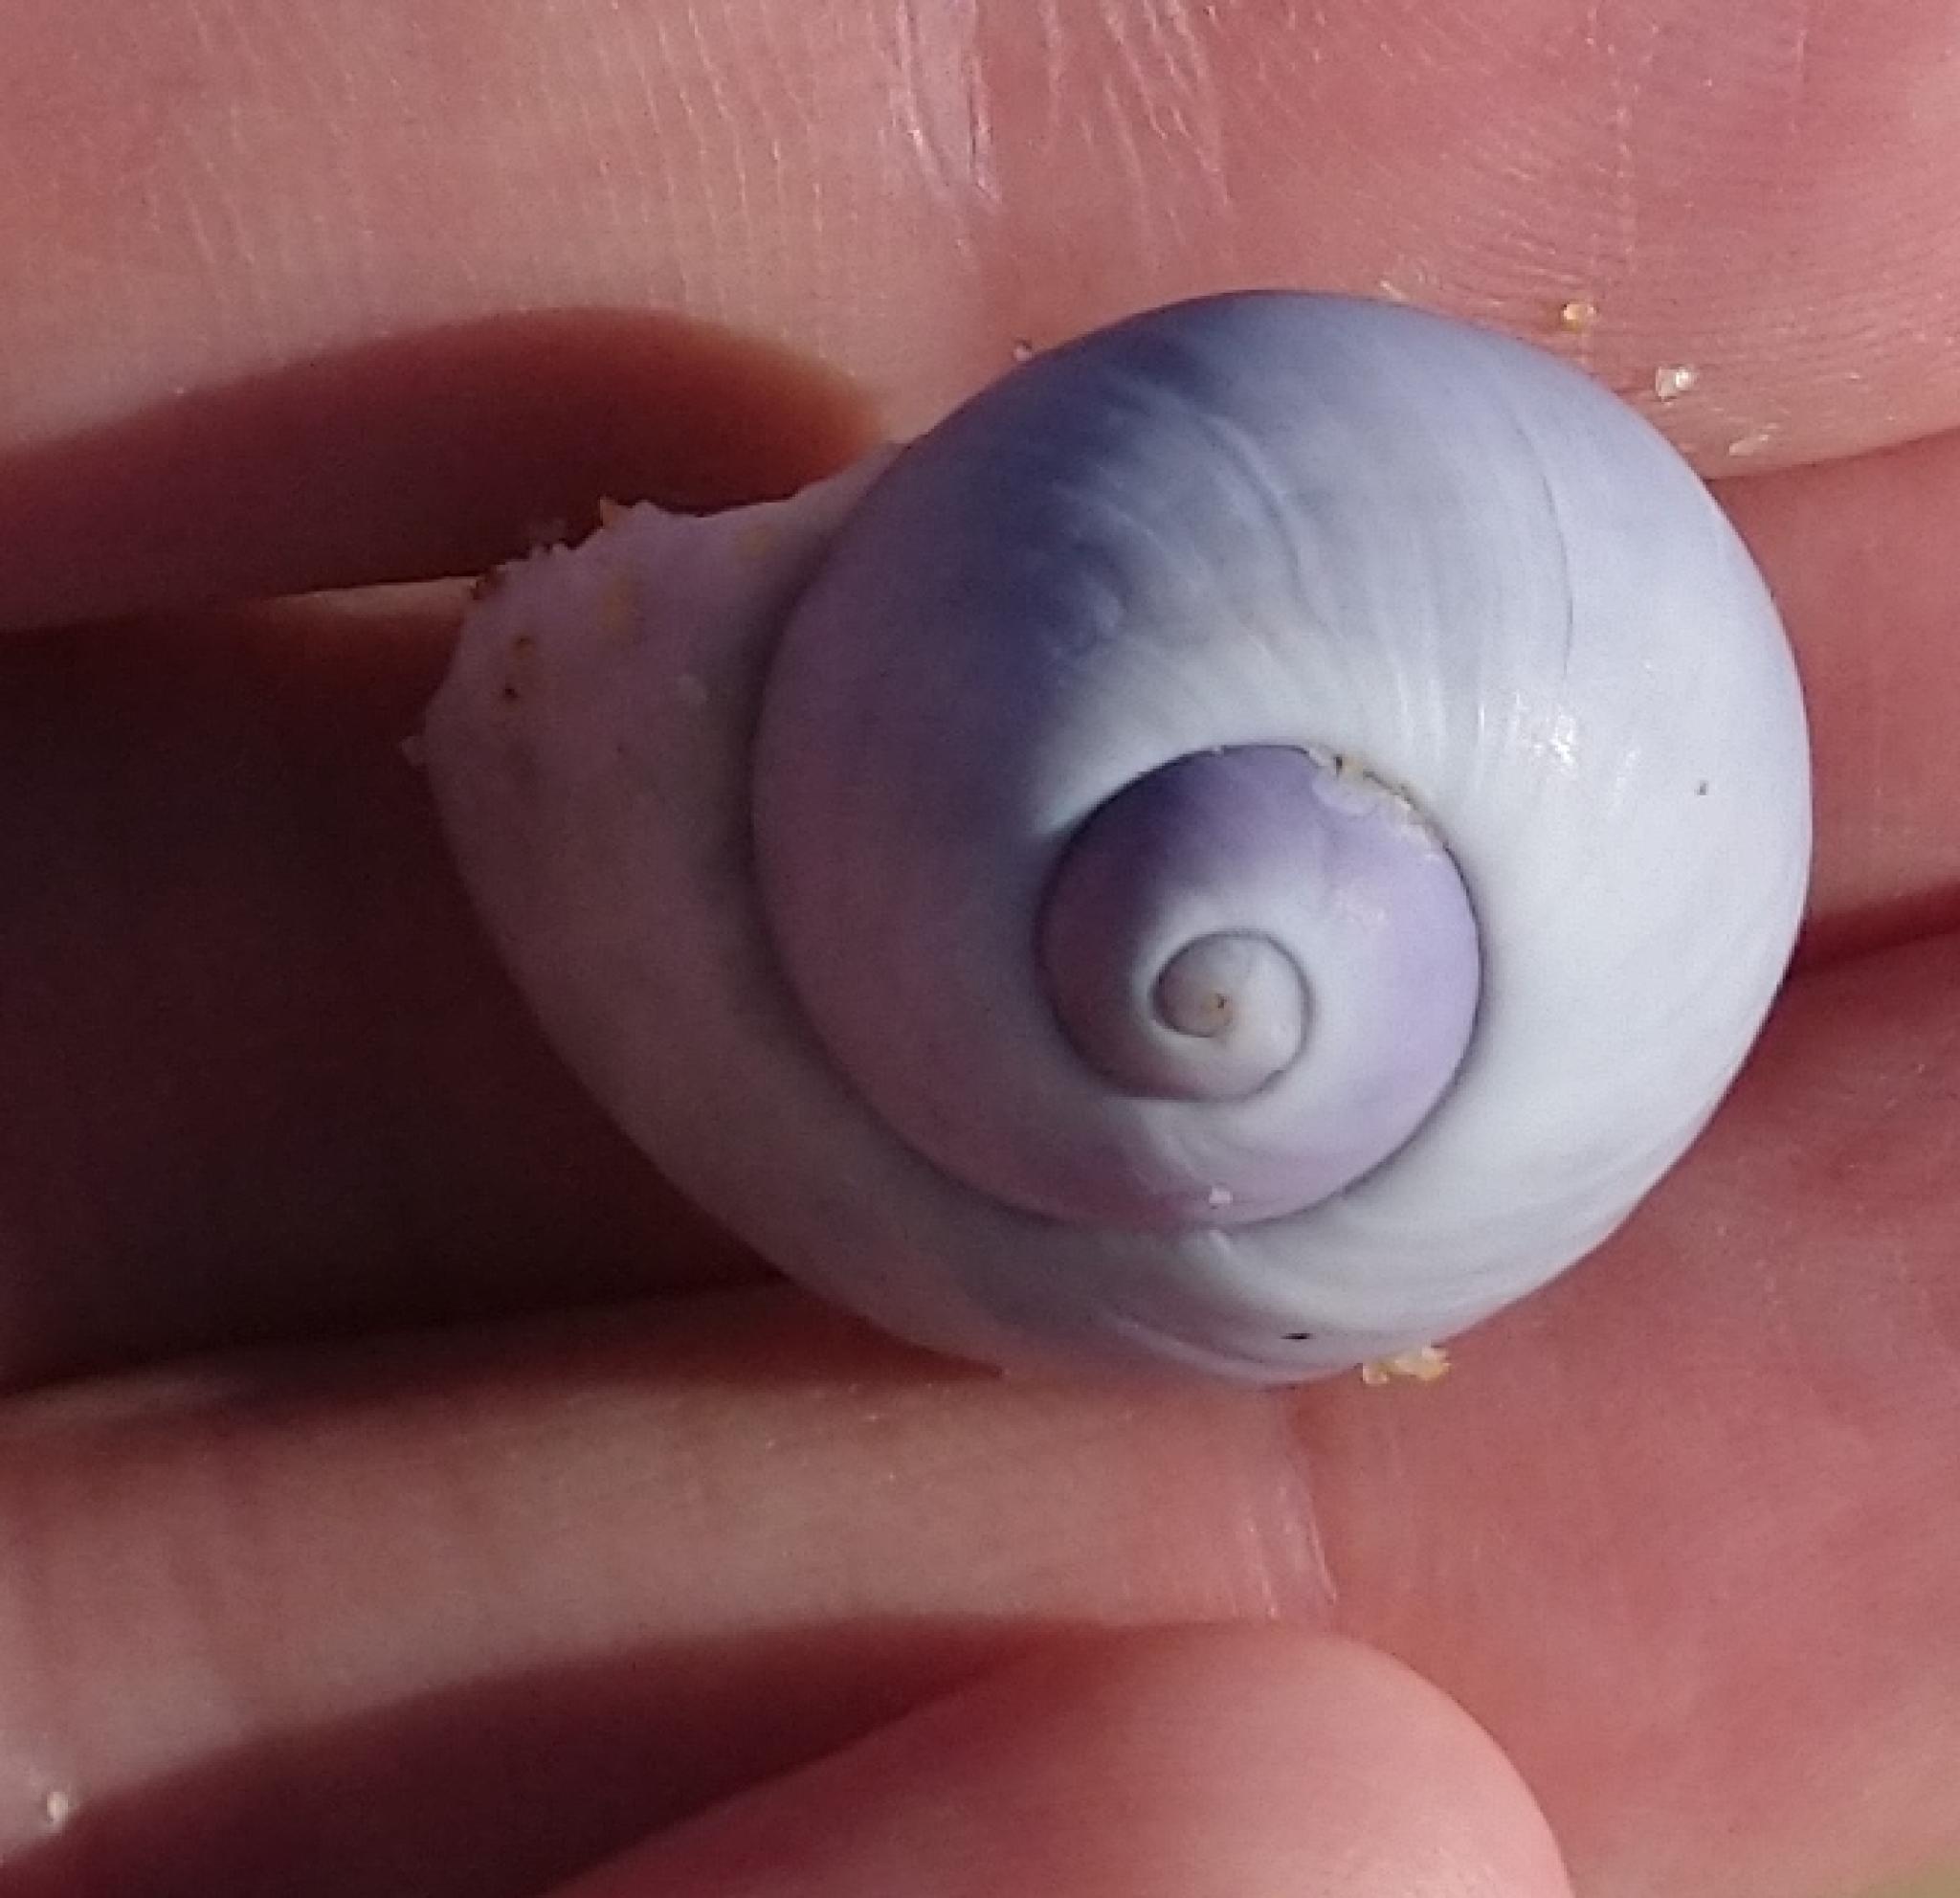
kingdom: Animalia
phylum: Mollusca
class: Gastropoda
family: Epitoniidae
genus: Janthina
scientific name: Janthina janthina
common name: Common janthina
